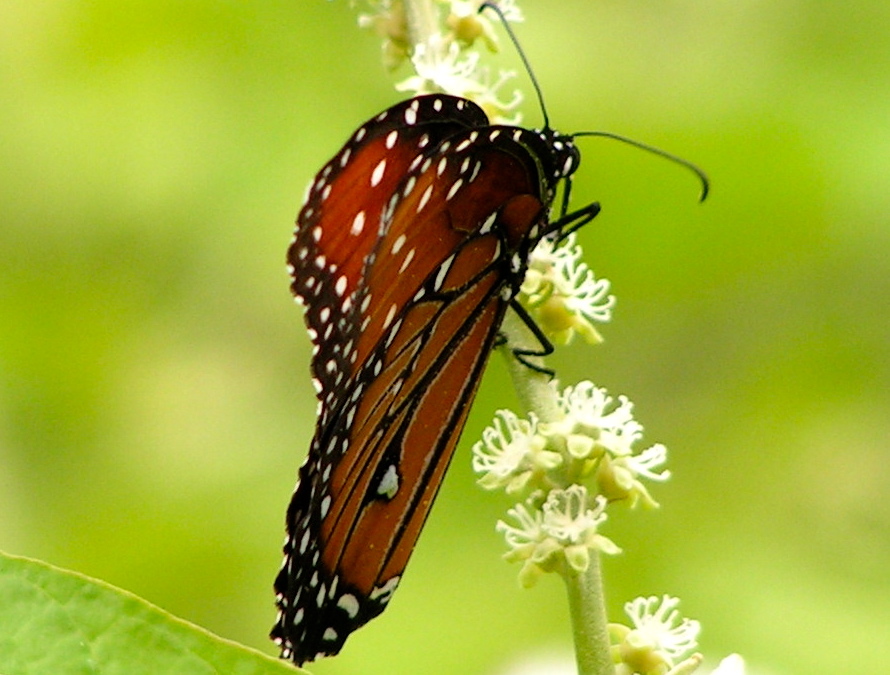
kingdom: Animalia
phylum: Arthropoda
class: Insecta
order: Lepidoptera
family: Nymphalidae
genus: Danaus
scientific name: Danaus gilippus
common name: Queen
